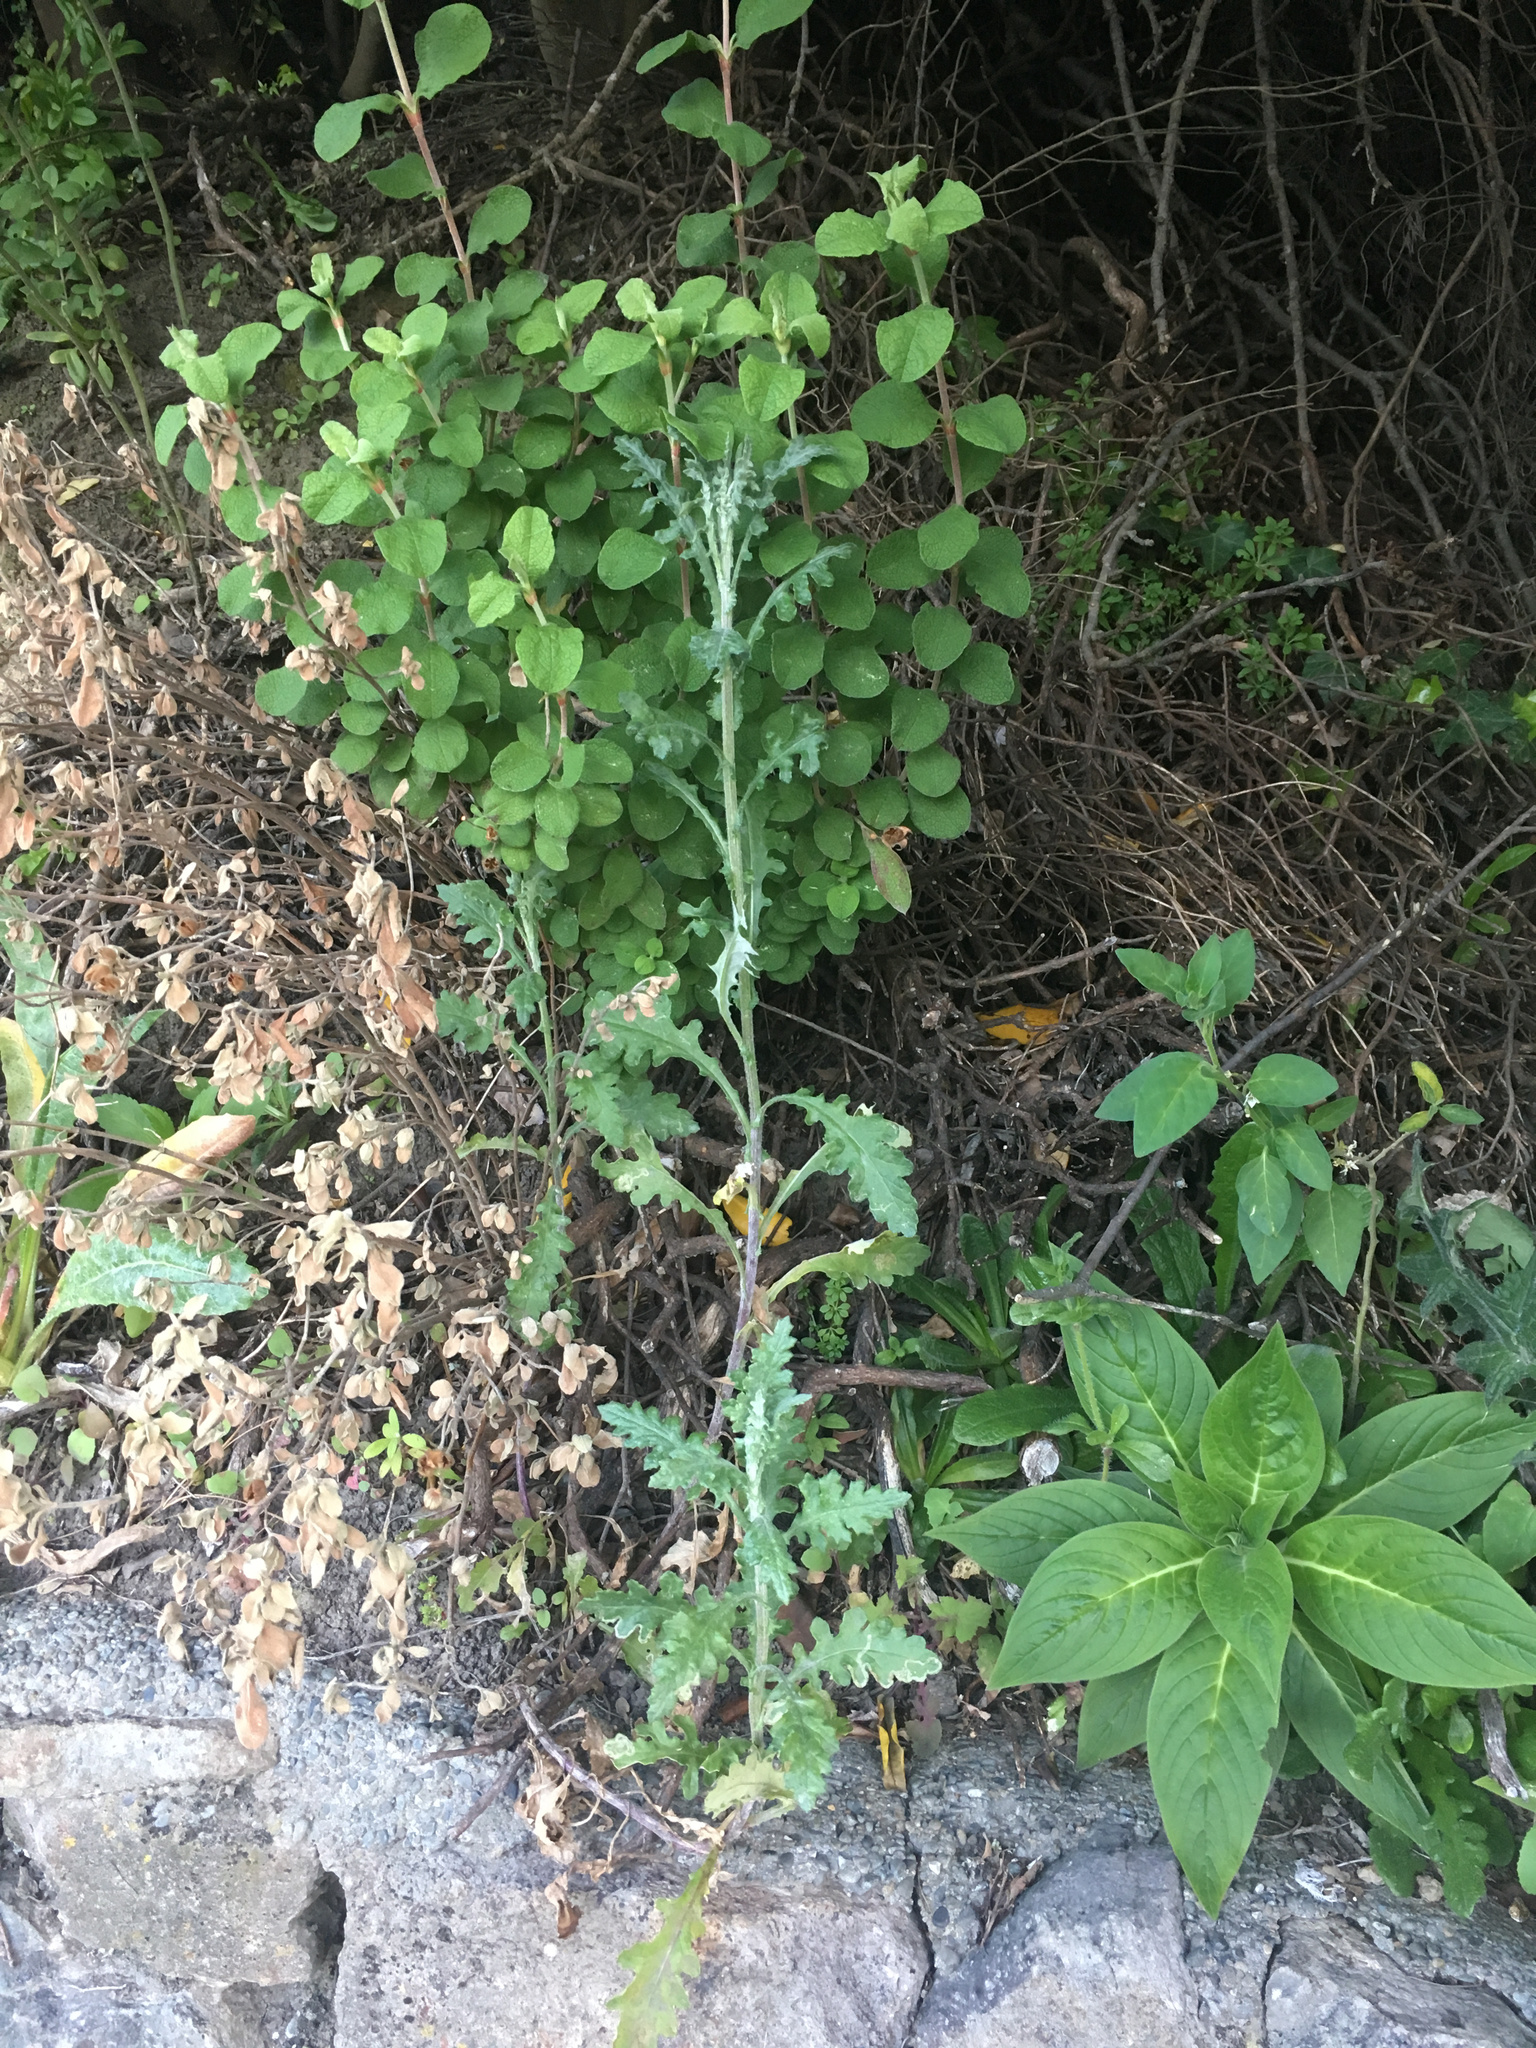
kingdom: Plantae
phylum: Tracheophyta
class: Magnoliopsida
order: Asterales
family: Asteraceae
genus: Senecio
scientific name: Senecio glomeratus
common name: Cutleaf burnweed
